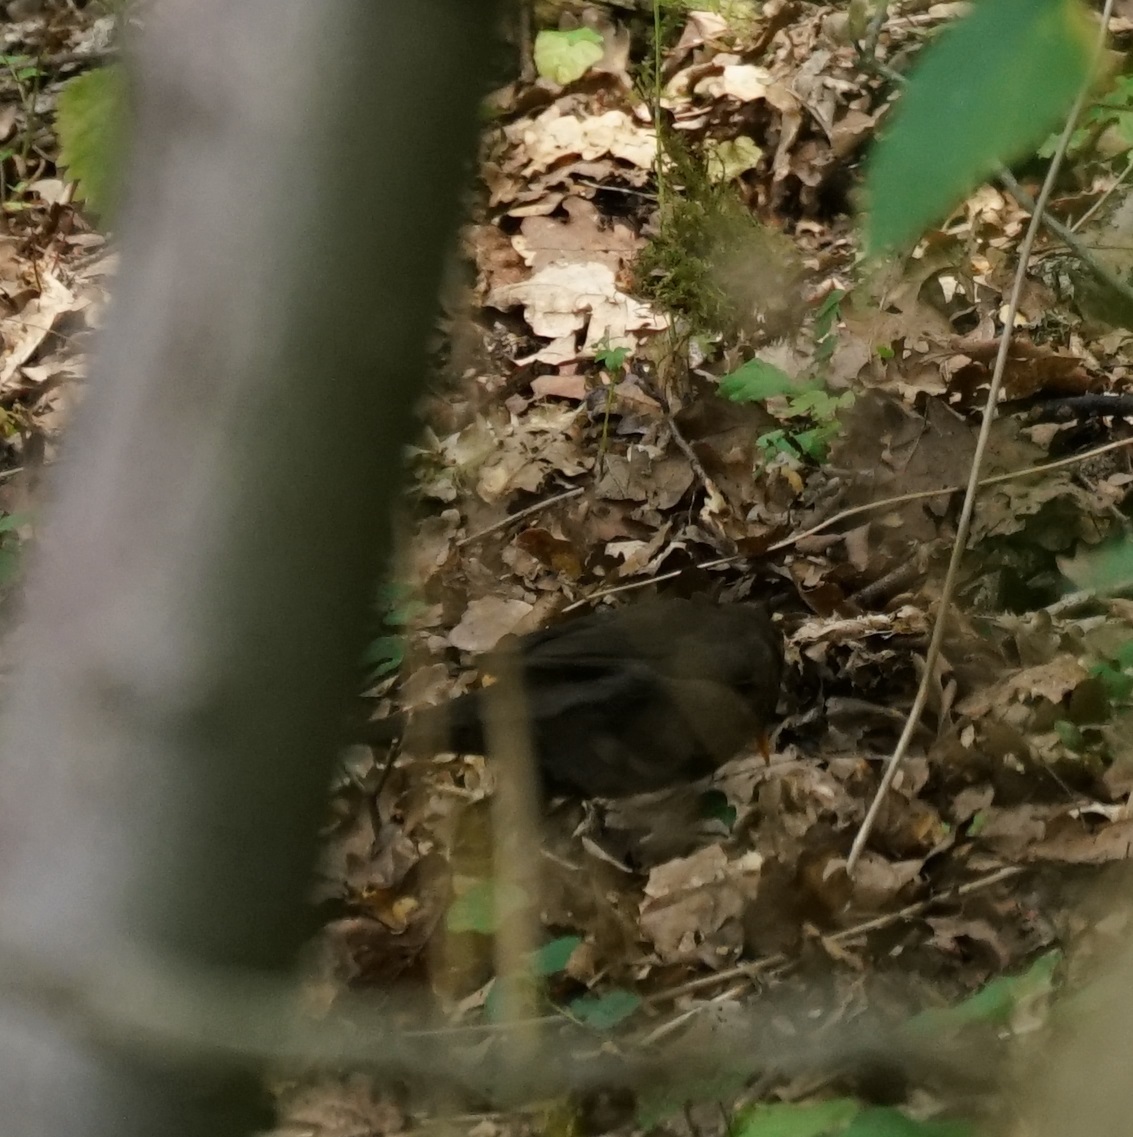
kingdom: Animalia
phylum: Chordata
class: Aves
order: Passeriformes
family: Turdidae
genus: Turdus
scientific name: Turdus merula
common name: Common blackbird
